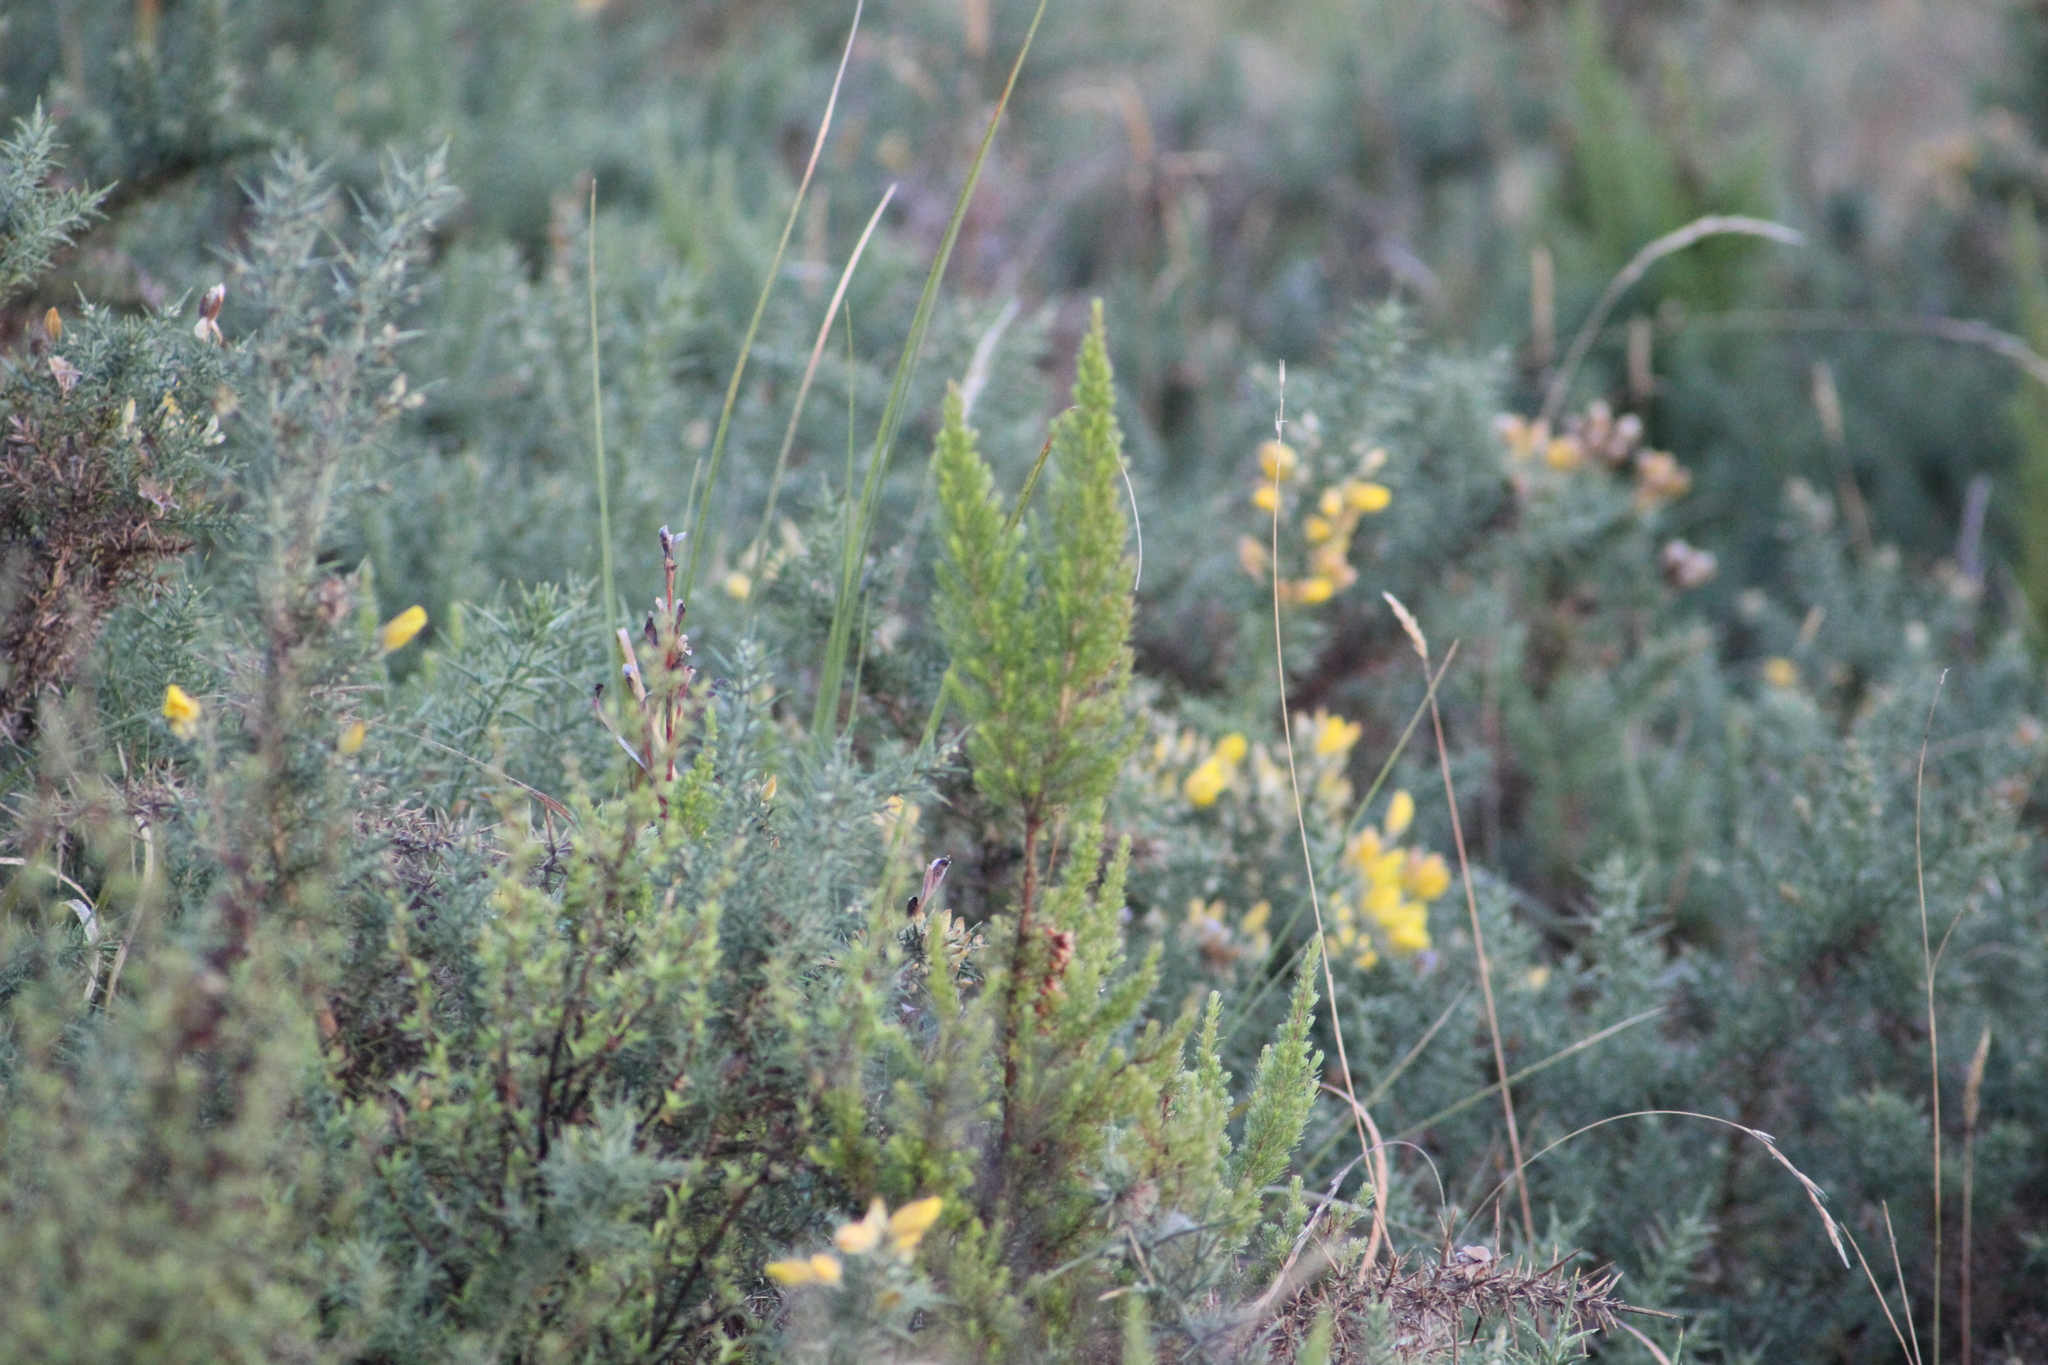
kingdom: Plantae
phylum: Tracheophyta
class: Magnoliopsida
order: Ericales
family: Ericaceae
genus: Erica
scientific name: Erica lusitanica
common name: Spanish heath
